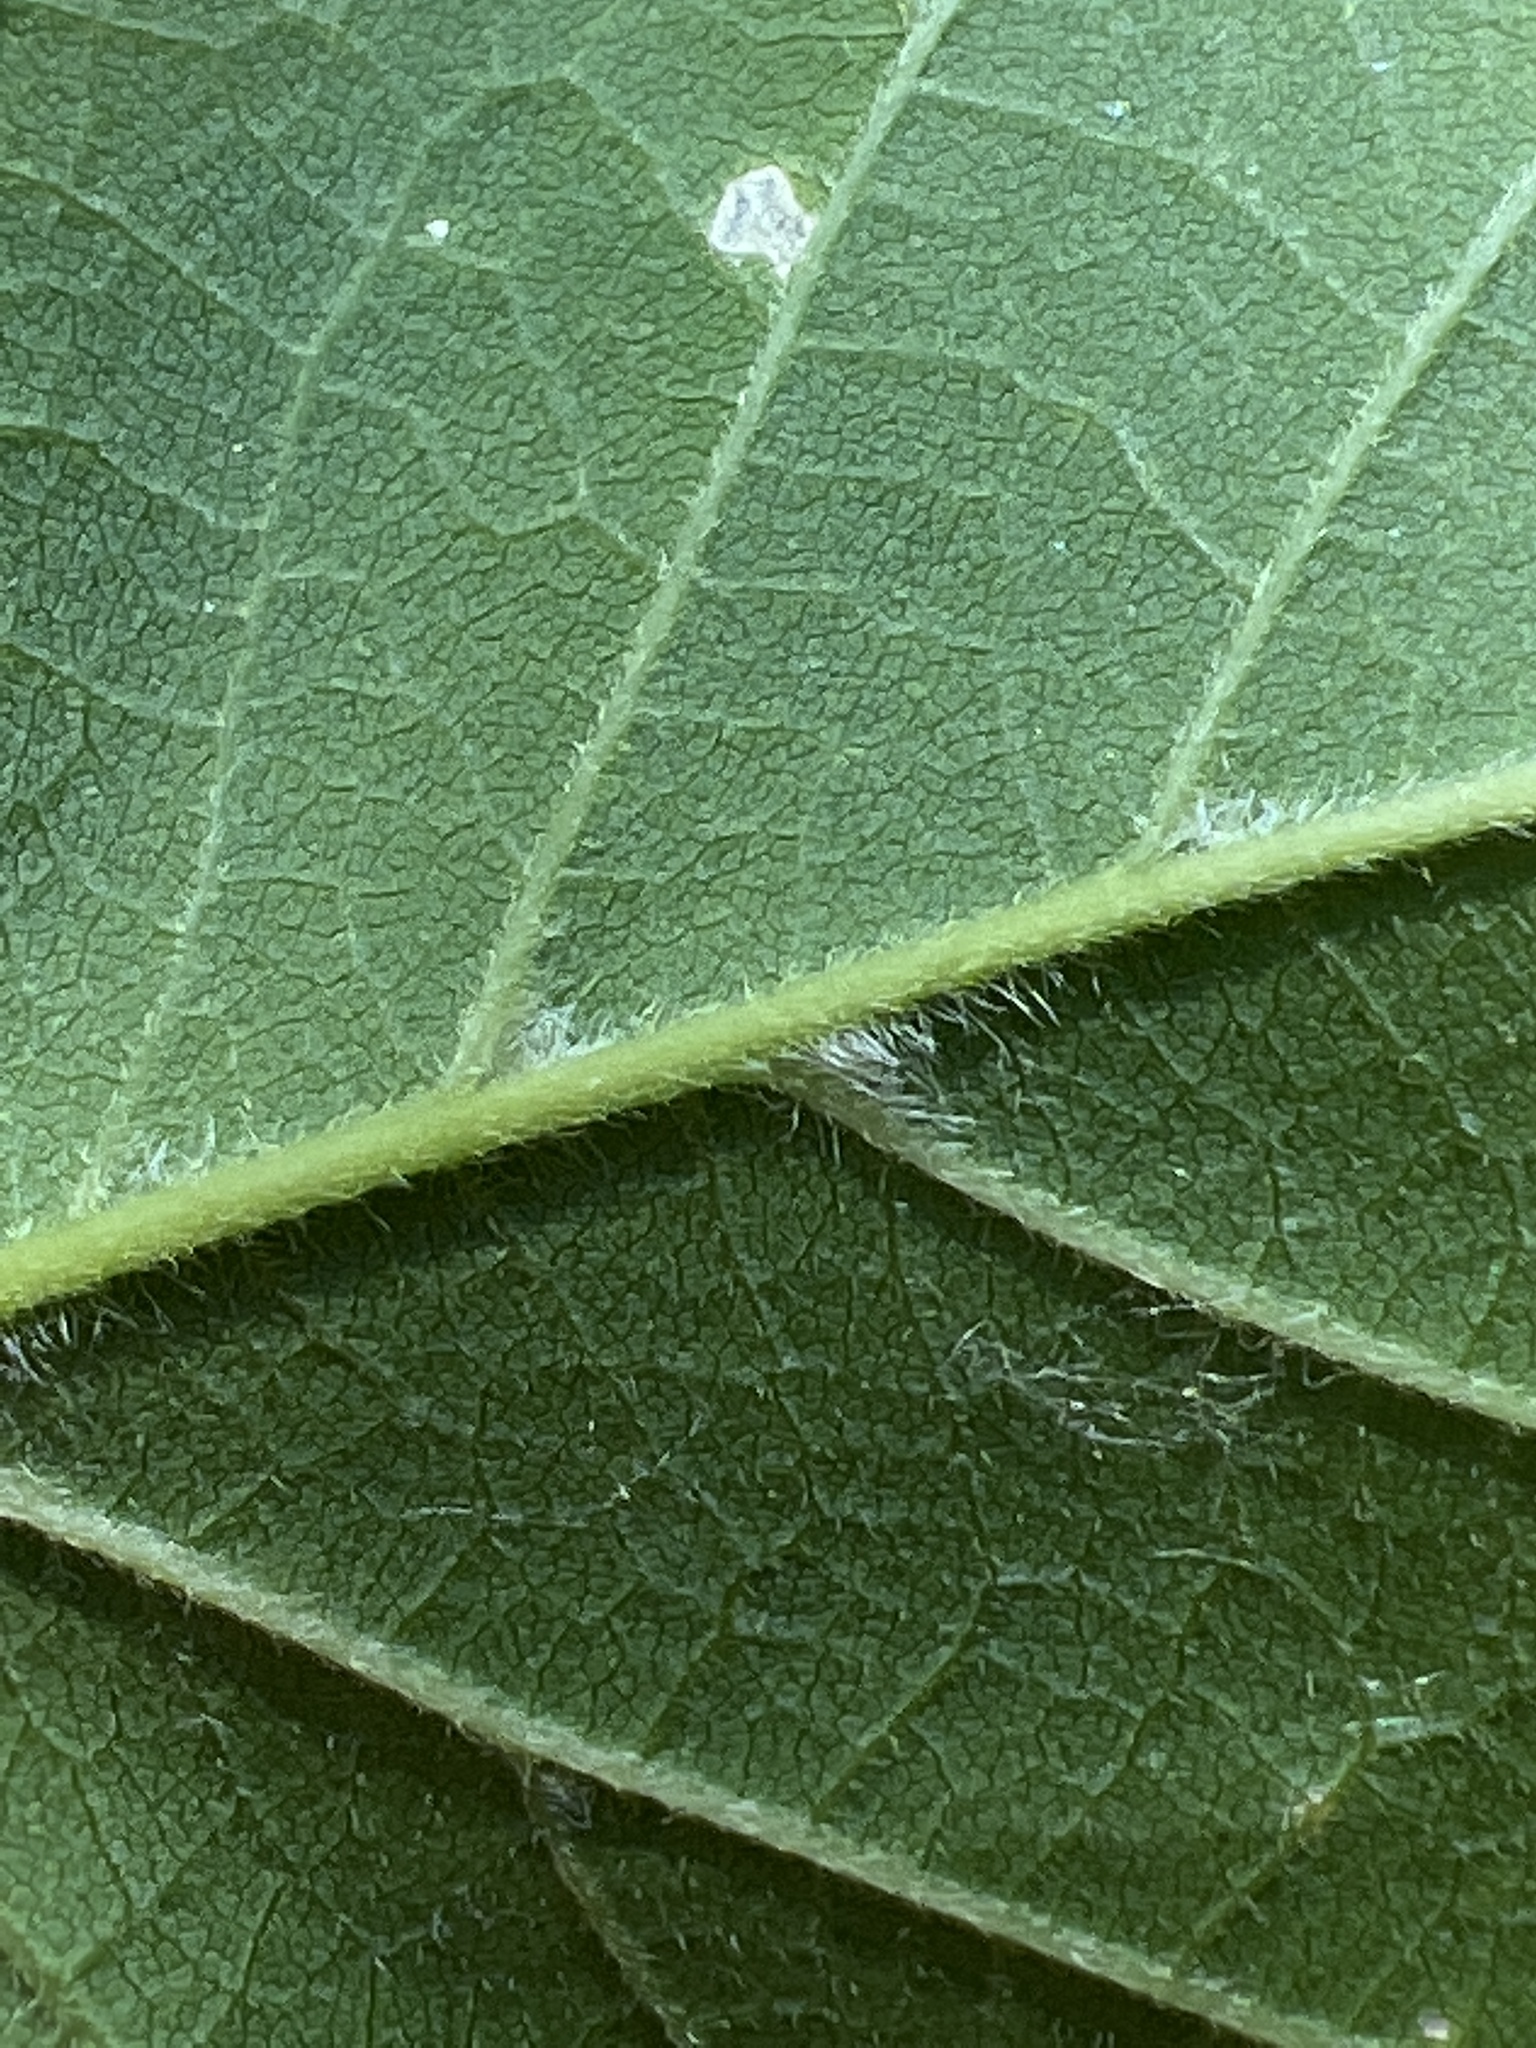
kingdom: Plantae
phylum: Tracheophyta
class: Magnoliopsida
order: Sapindales
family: Sapindaceae
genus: Acer
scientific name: Acer negundo
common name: Ashleaf maple
